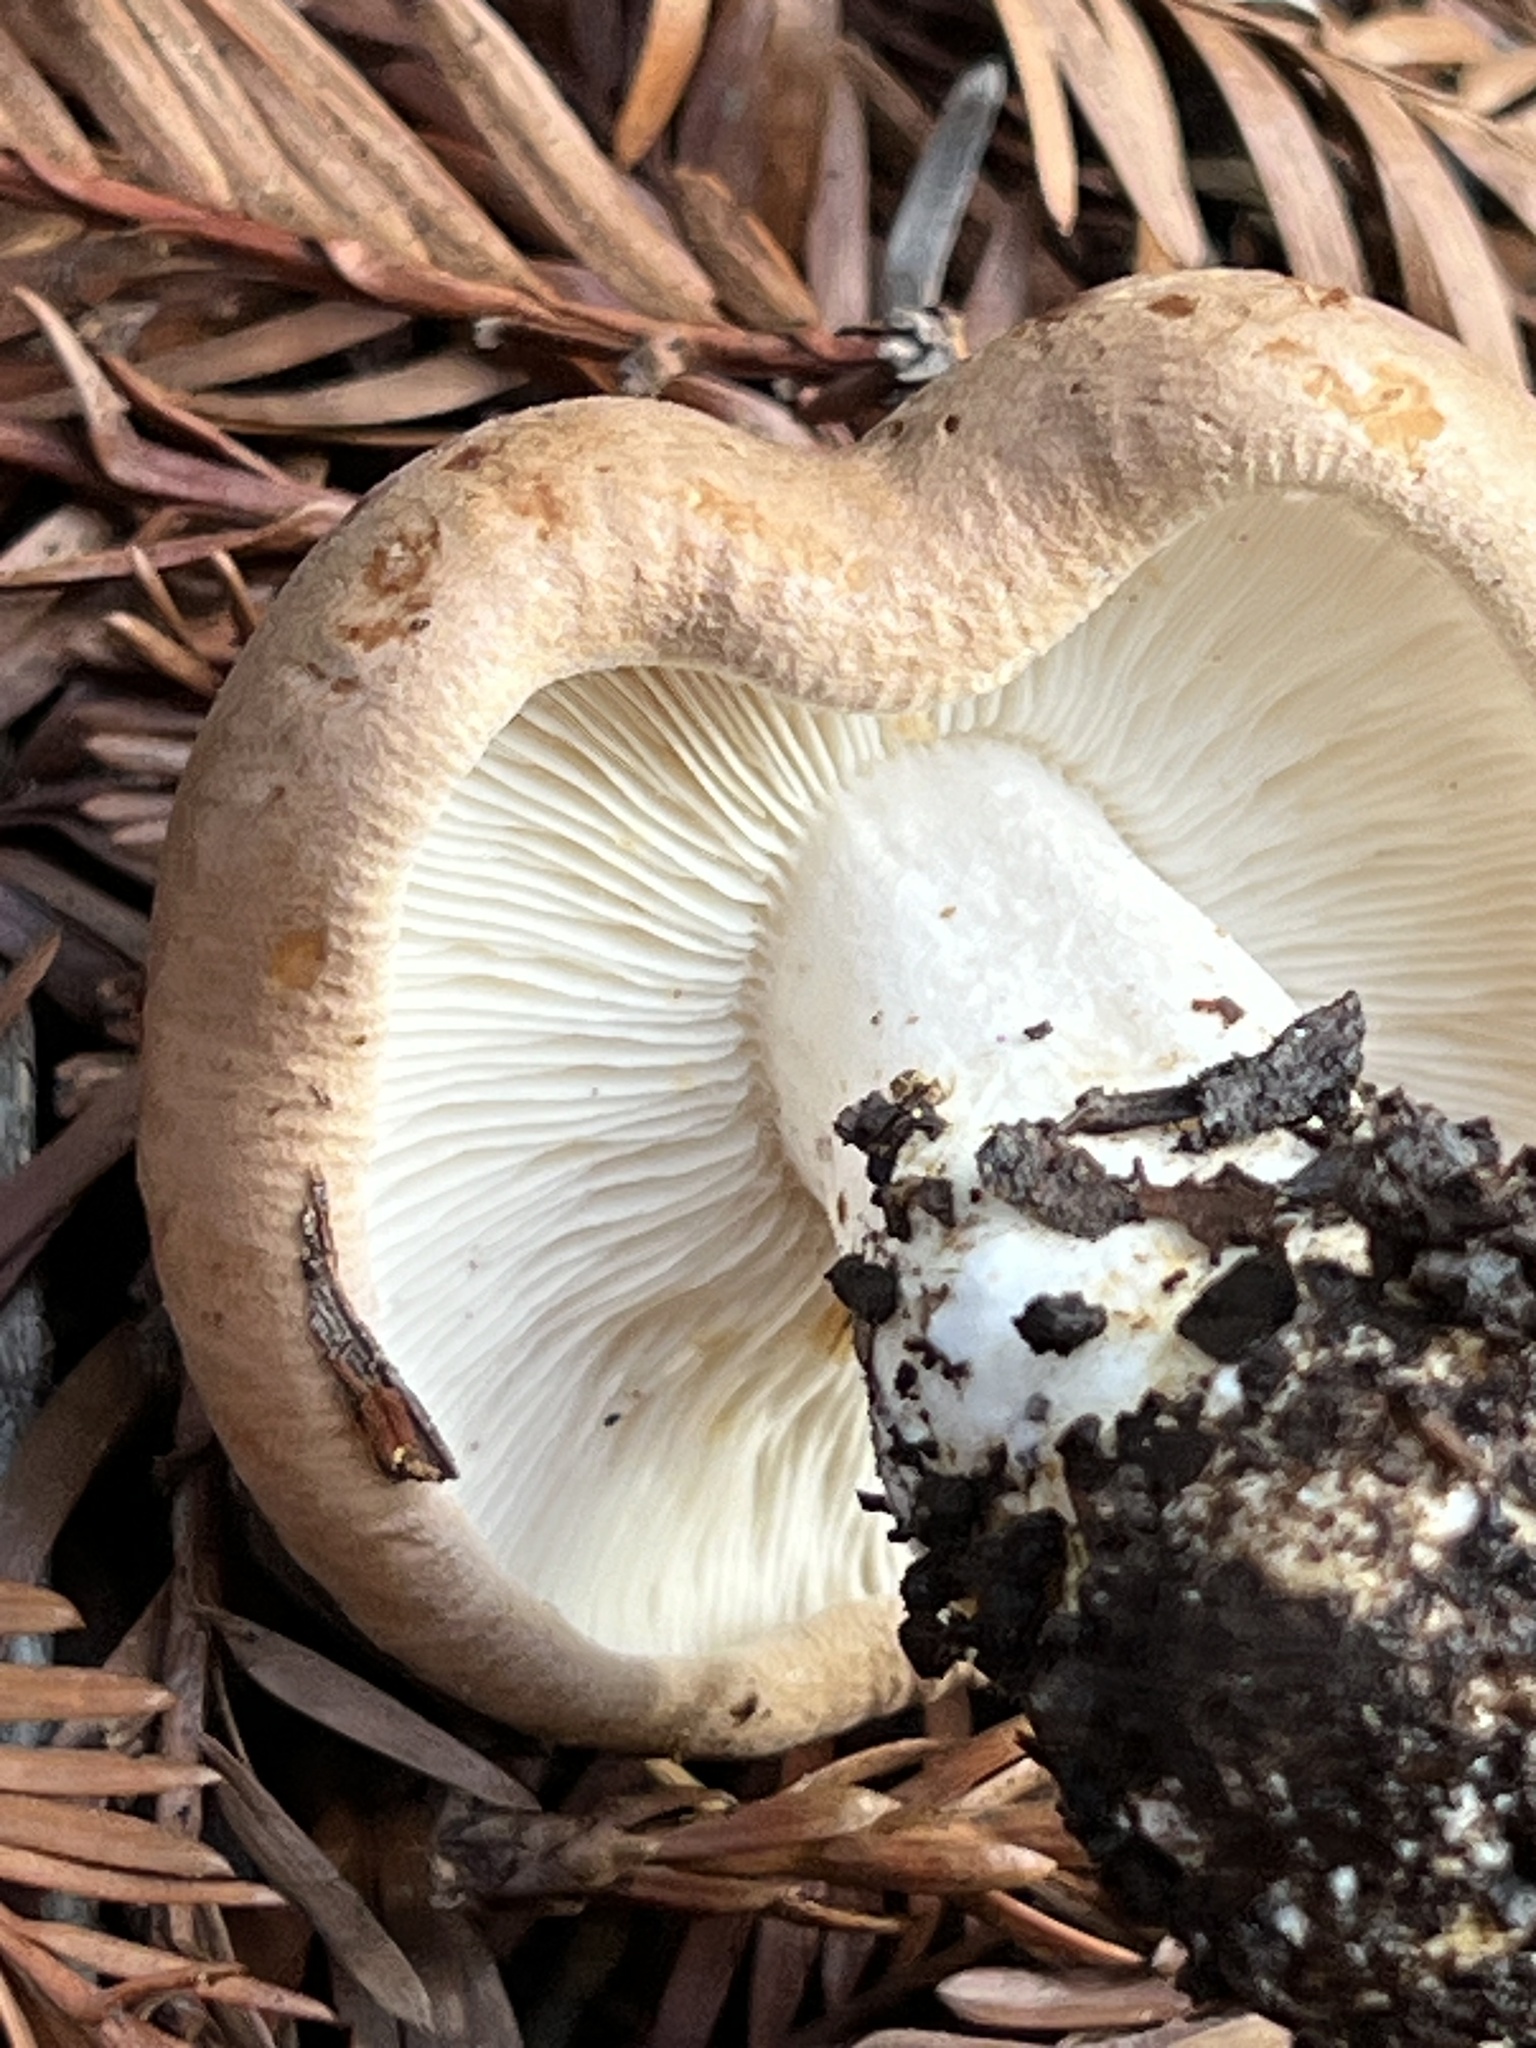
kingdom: Fungi
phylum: Basidiomycota
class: Agaricomycetes
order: Agaricales
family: Tricholomataceae
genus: Leucopaxillus
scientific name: Leucopaxillus gentianeus
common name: Bitter funnel
